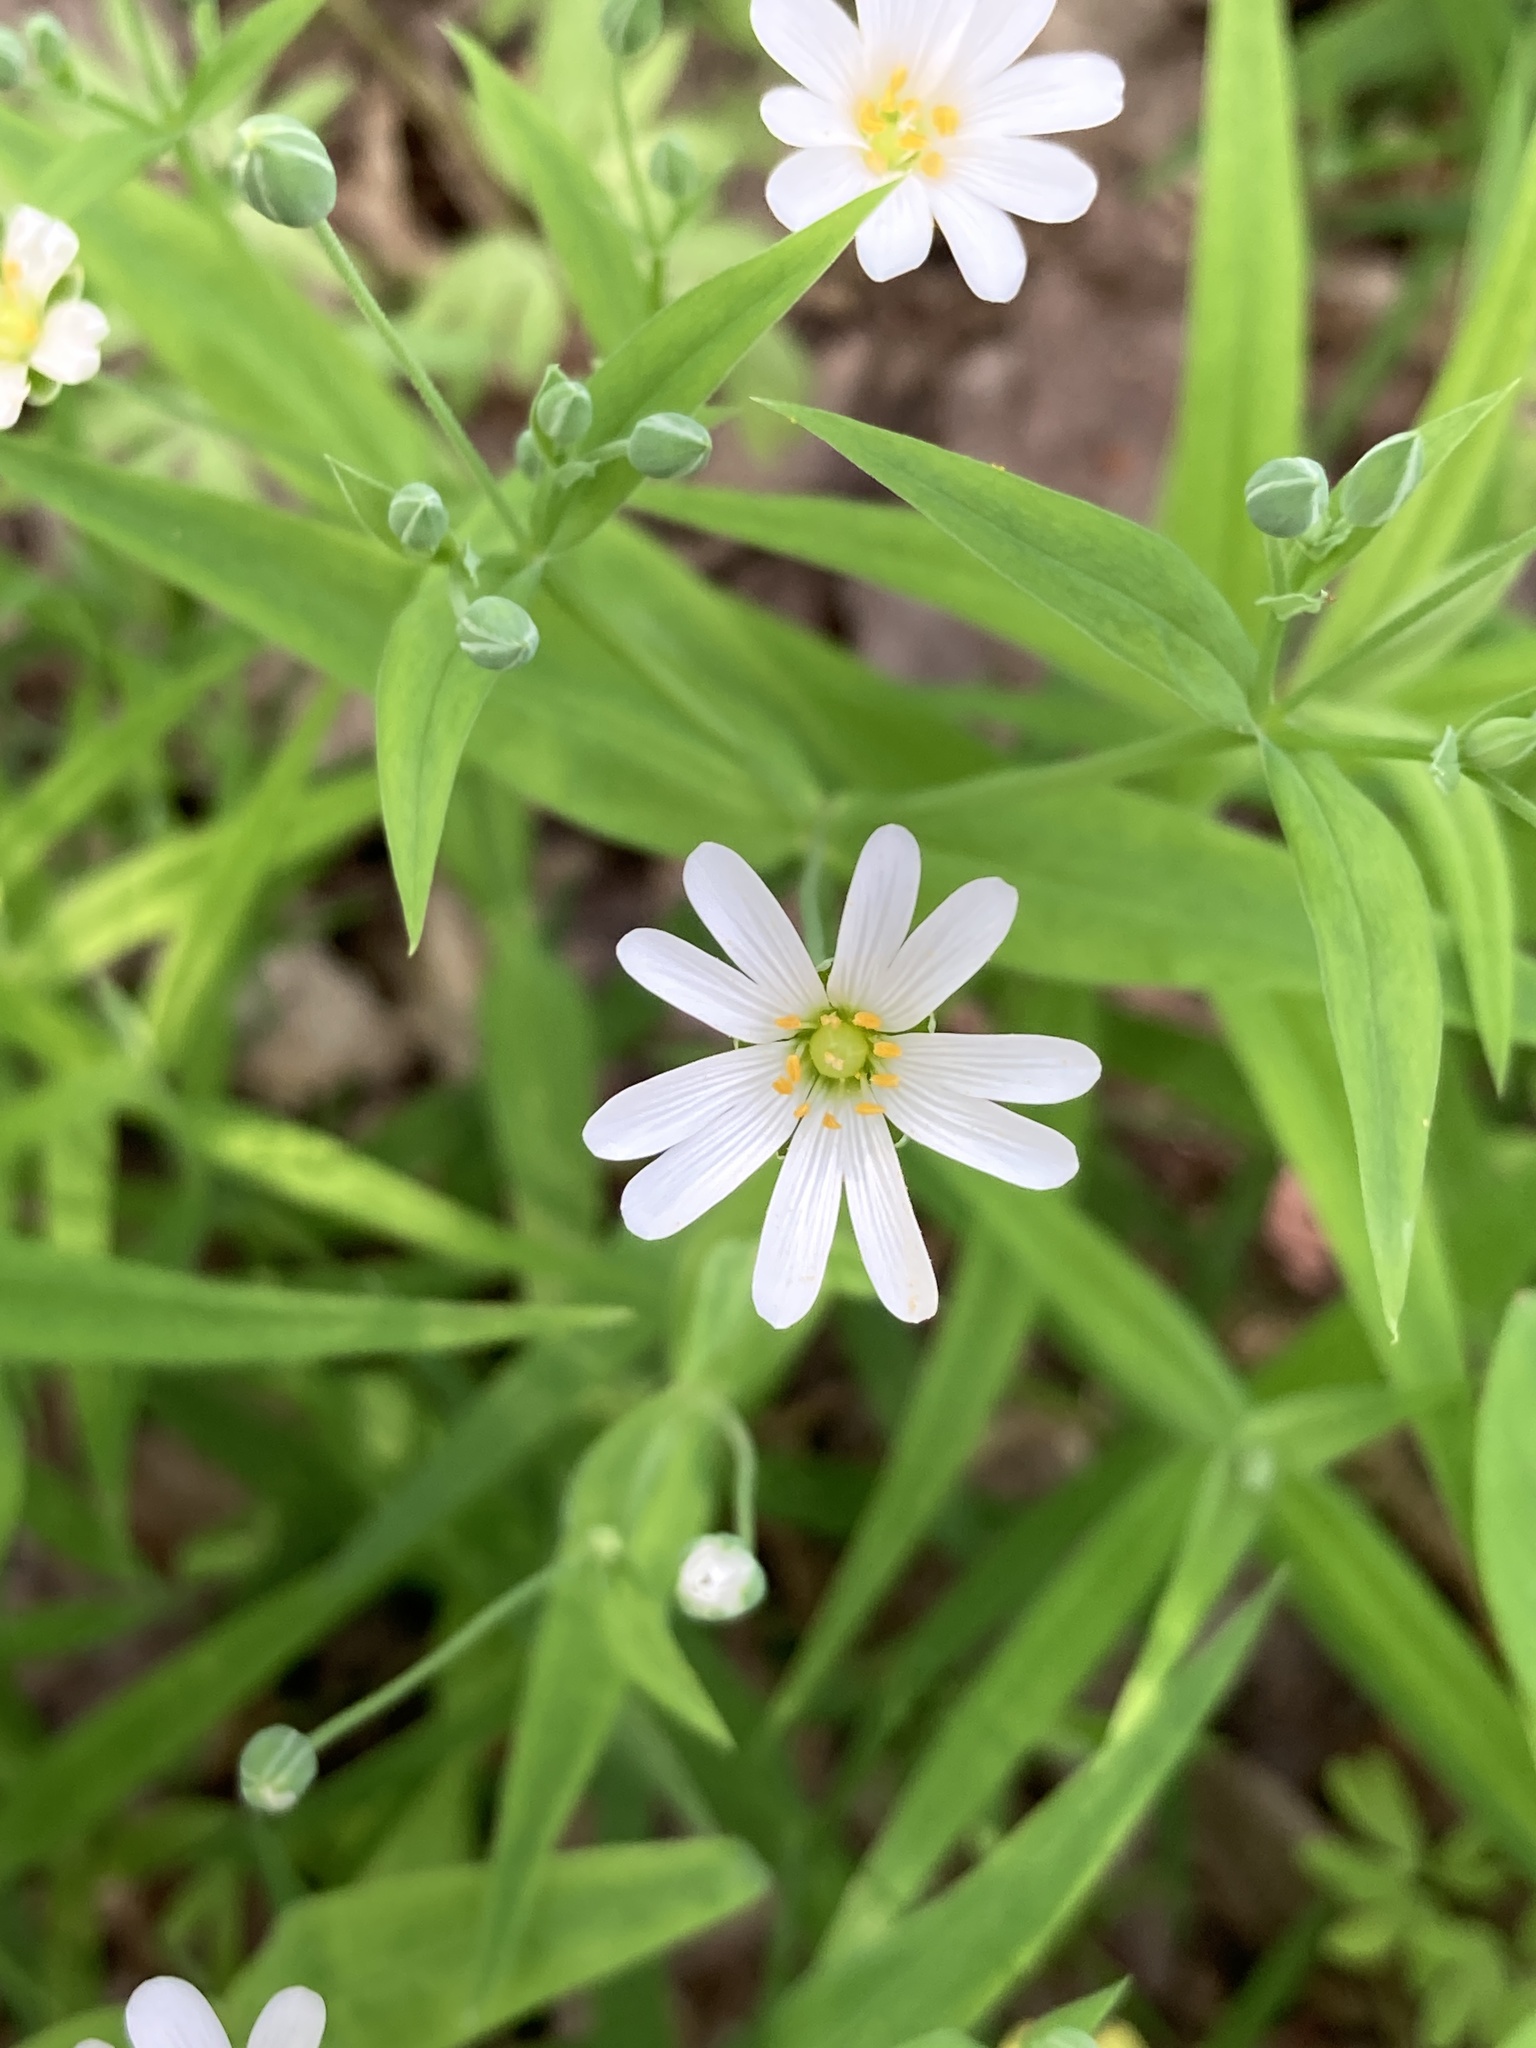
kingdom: Plantae
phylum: Tracheophyta
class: Magnoliopsida
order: Caryophyllales
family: Caryophyllaceae
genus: Rabelera
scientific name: Rabelera holostea
